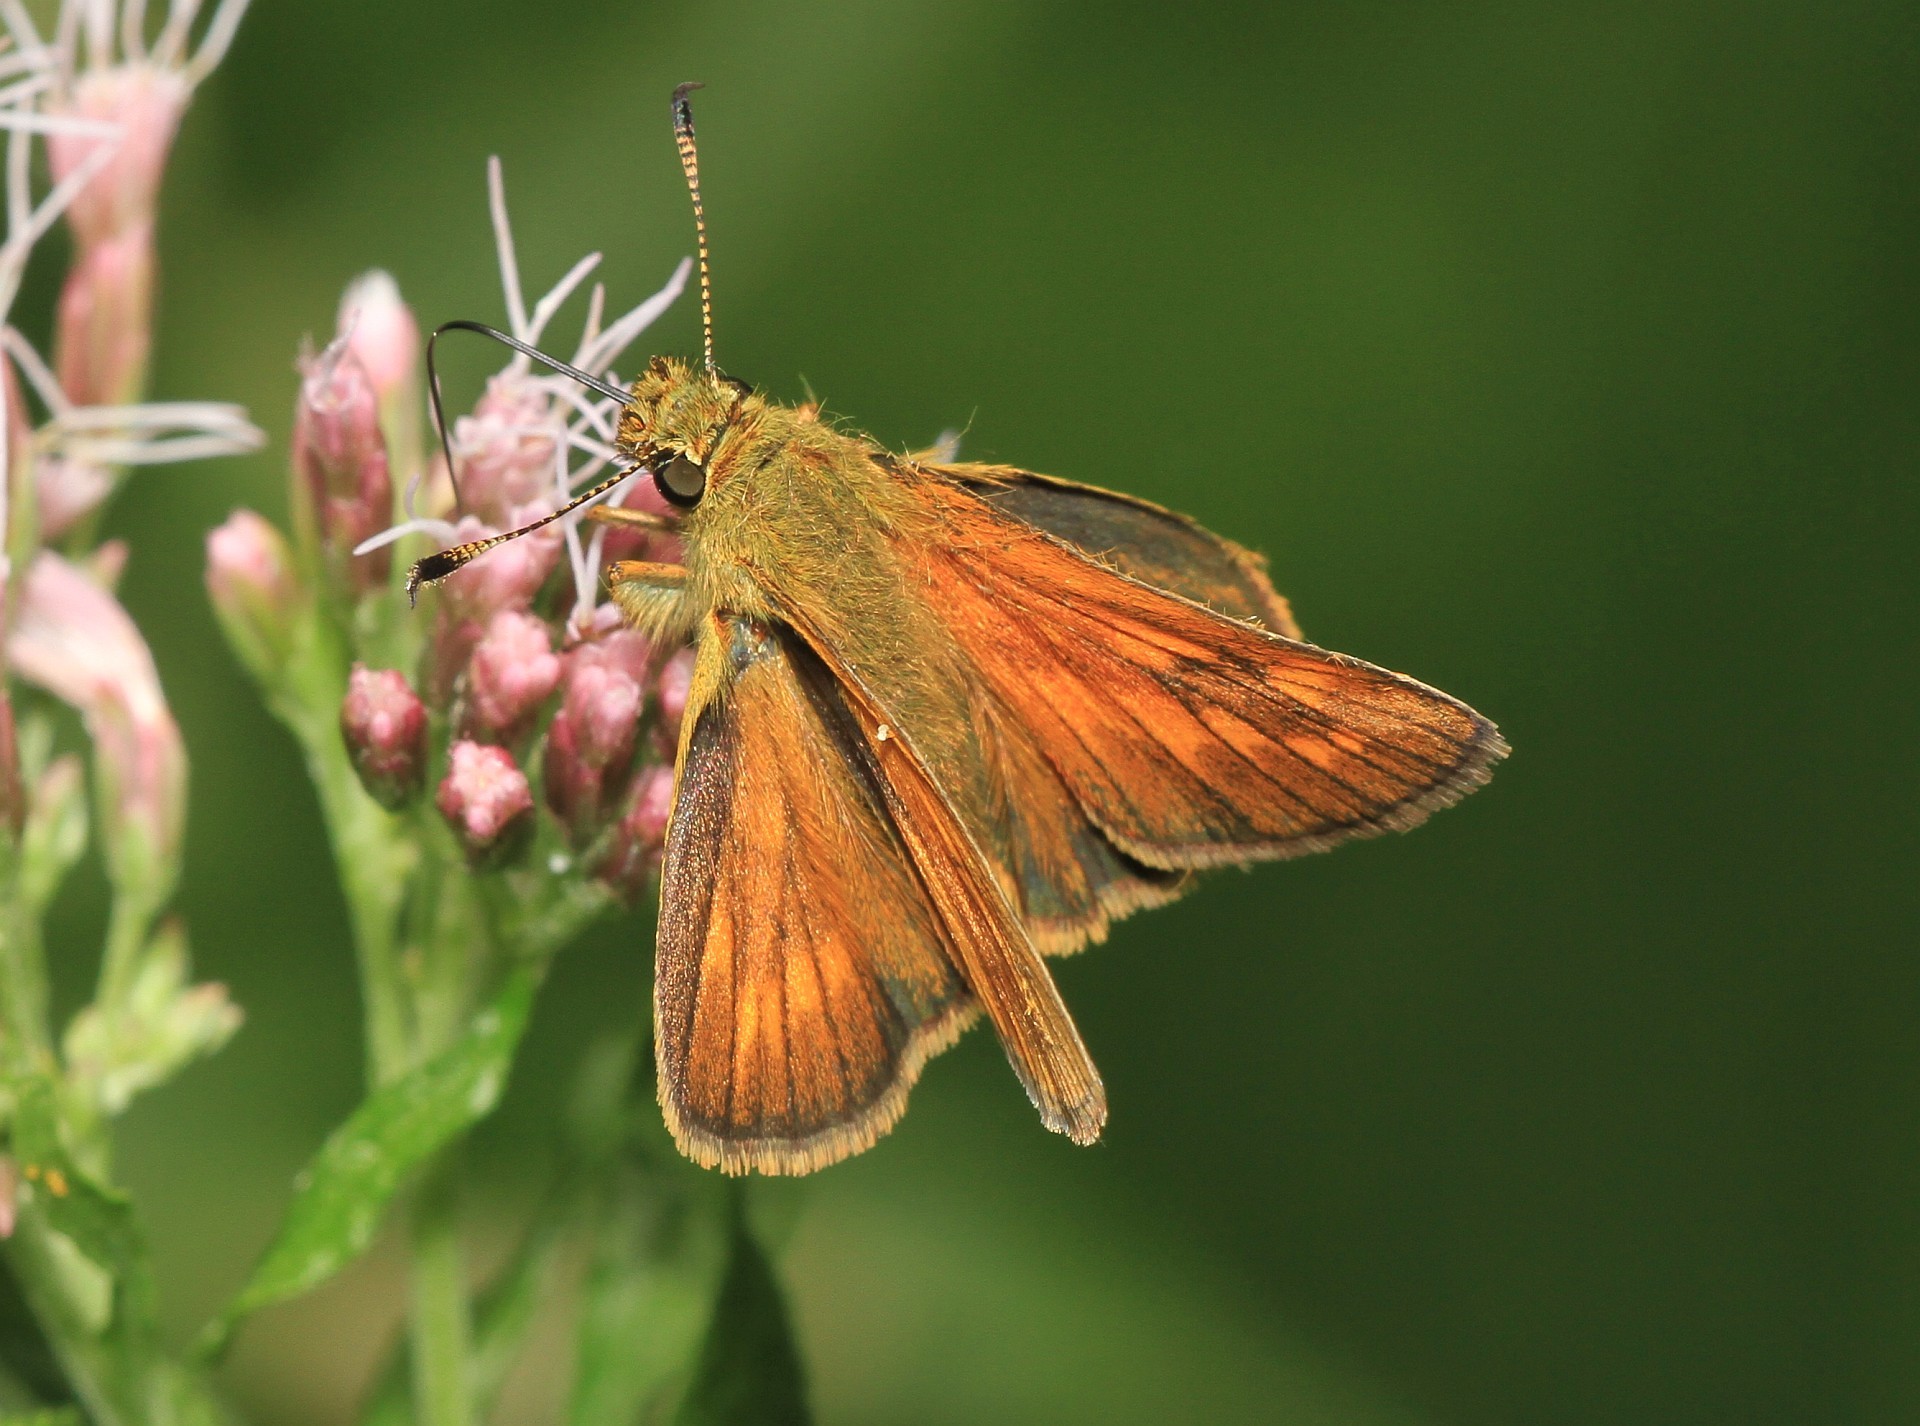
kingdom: Animalia
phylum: Arthropoda
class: Insecta
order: Lepidoptera
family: Hesperiidae
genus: Ochlodes
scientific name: Ochlodes venata
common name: Large skipper
